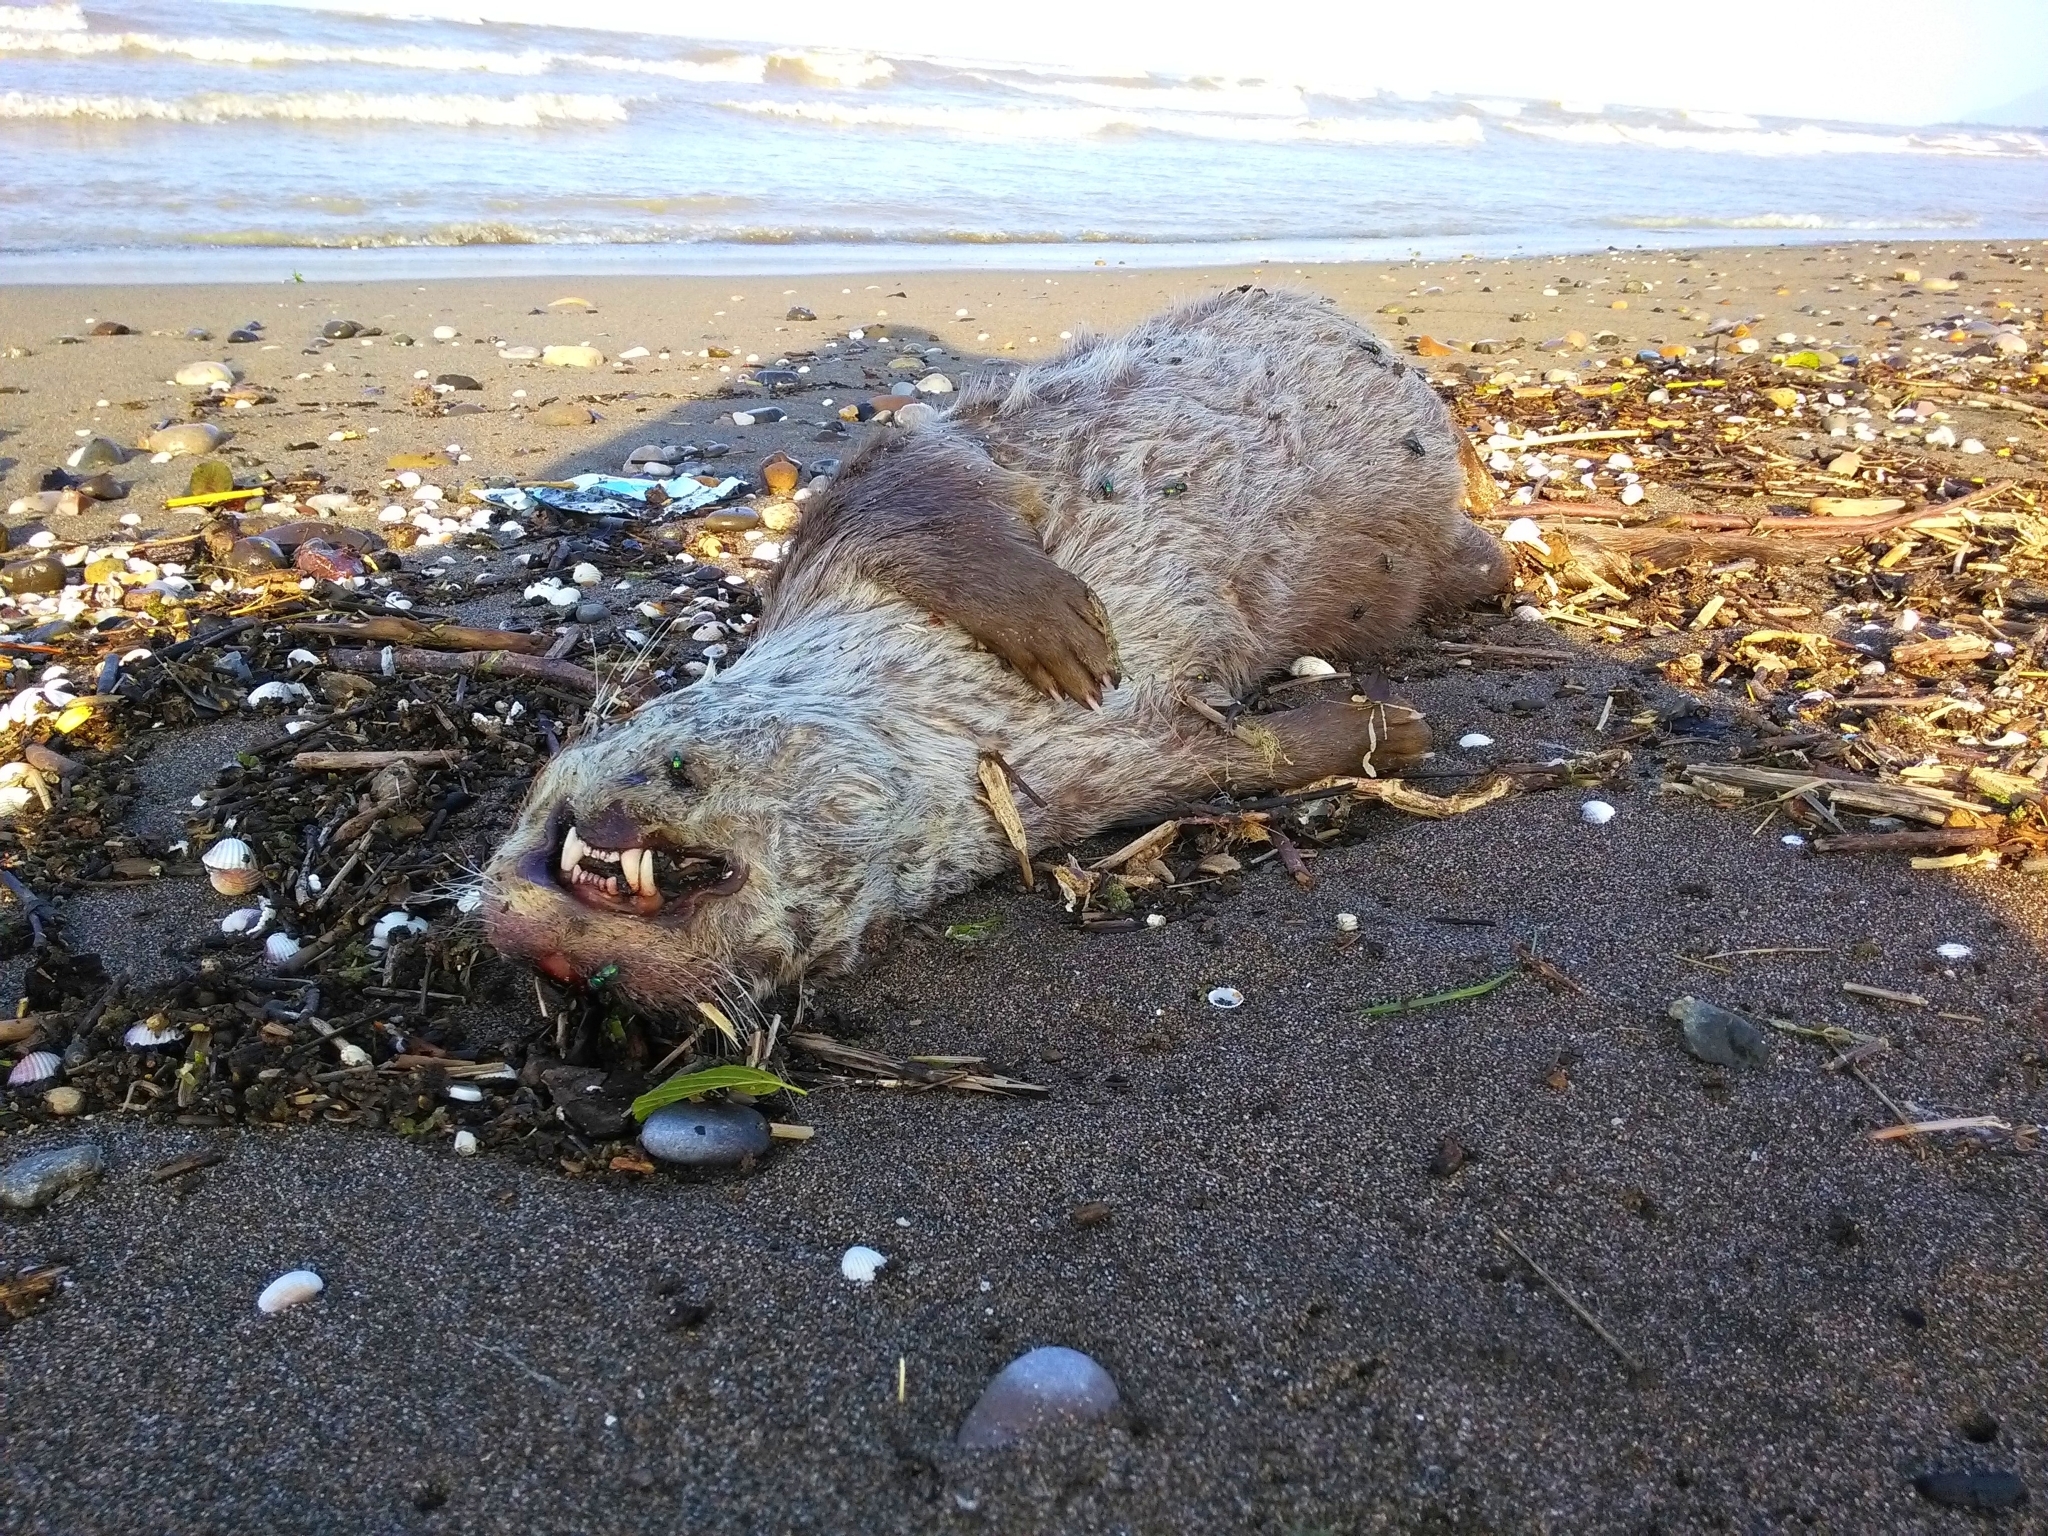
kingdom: Animalia
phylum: Chordata
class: Mammalia
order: Carnivora
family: Mustelidae
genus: Lutra
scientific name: Lutra lutra
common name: European otter
